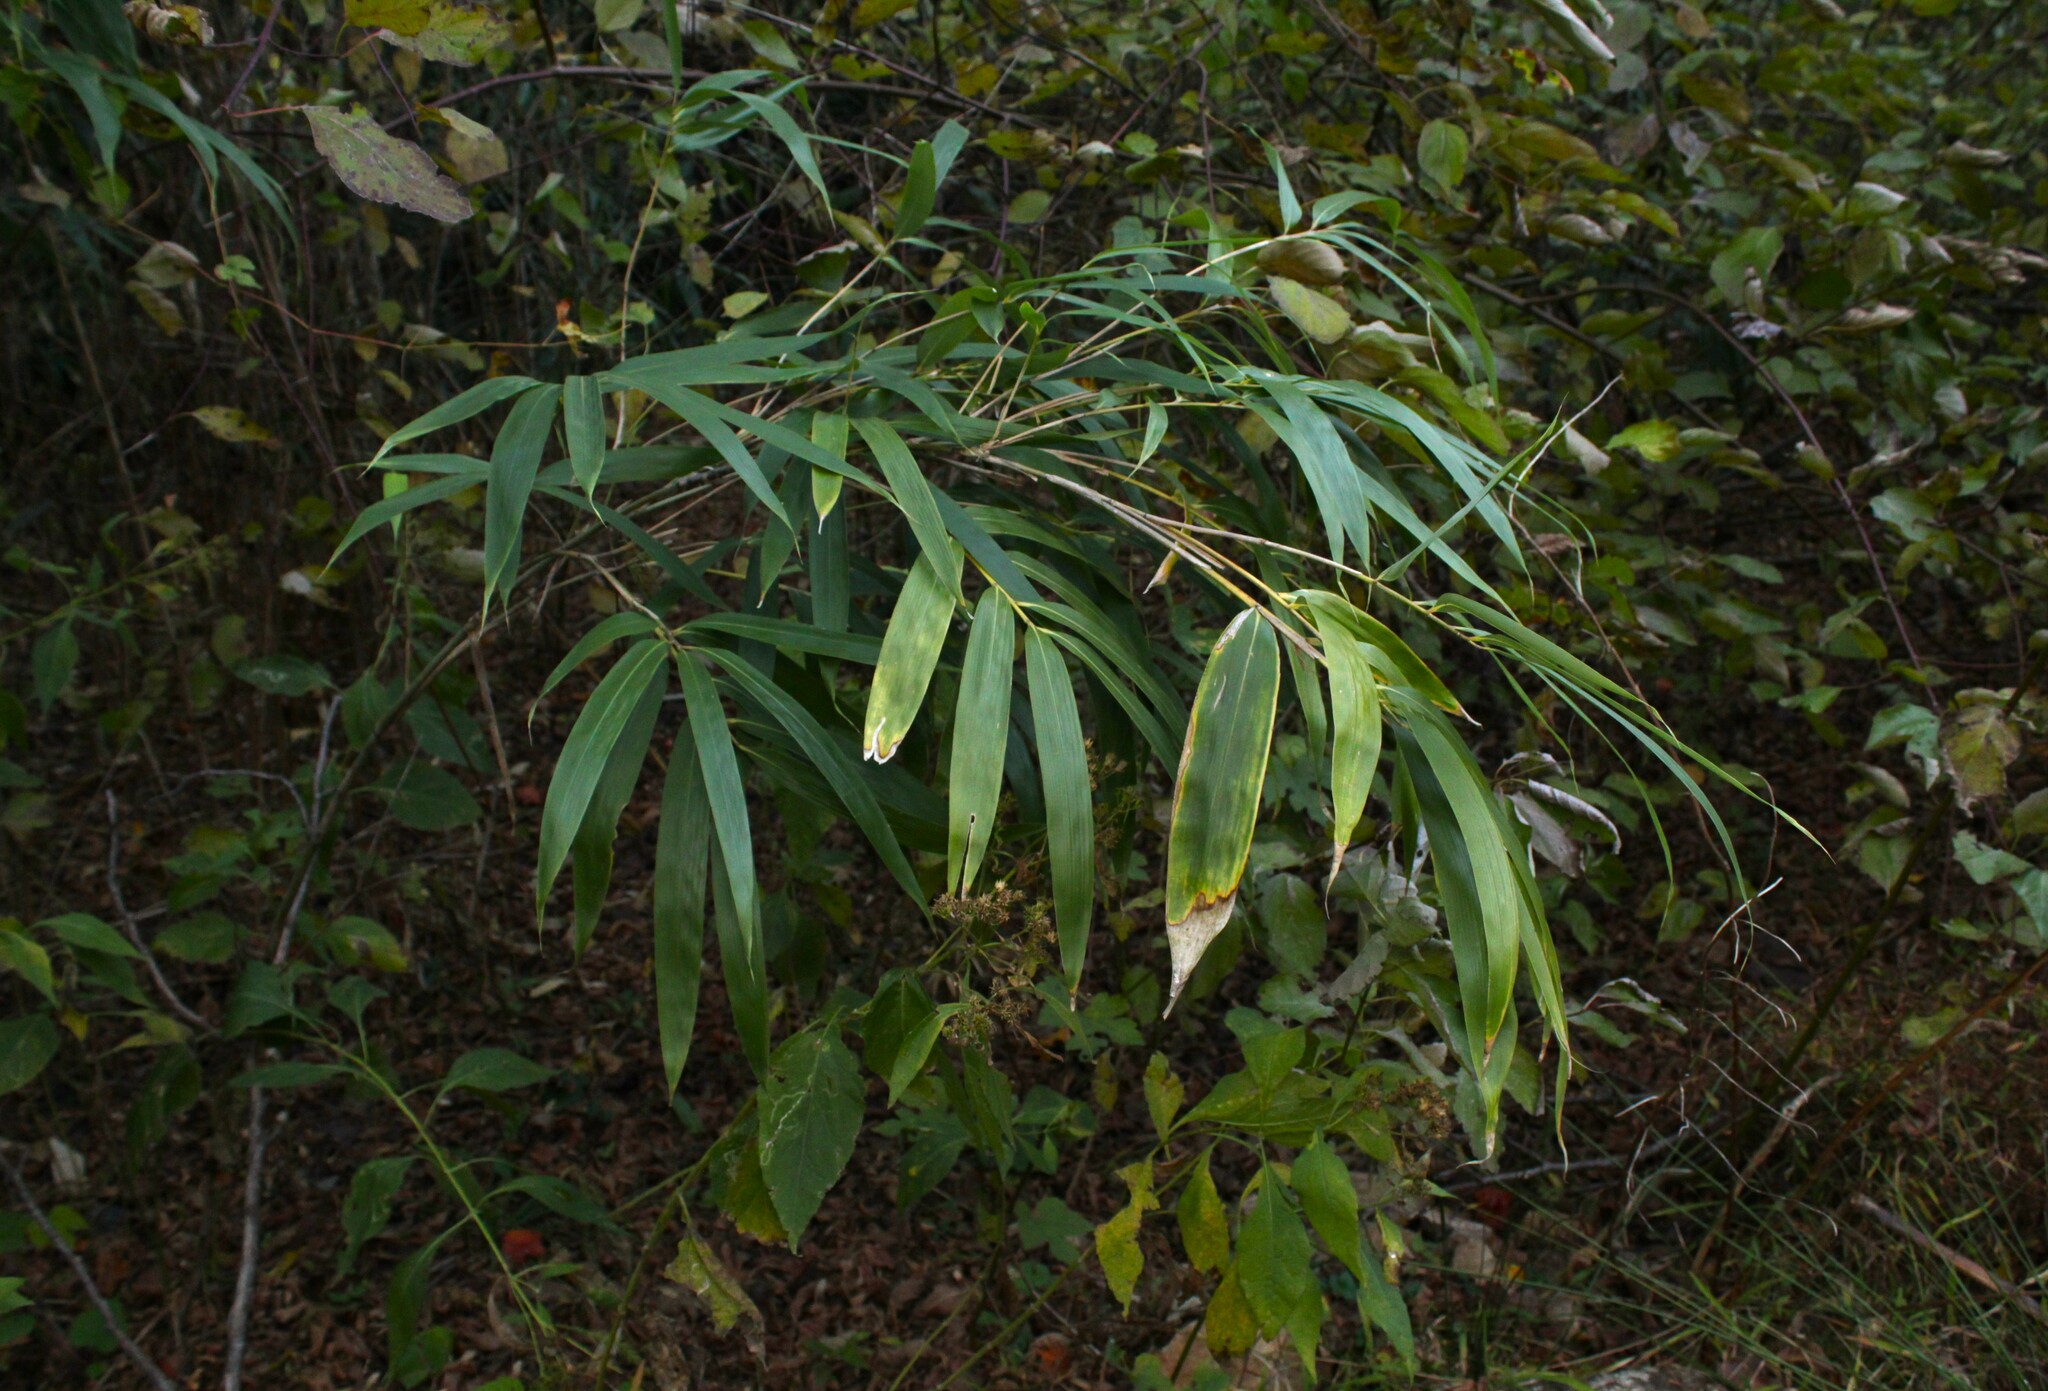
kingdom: Plantae
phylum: Tracheophyta
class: Liliopsida
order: Poales
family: Poaceae
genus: Pseudosasa
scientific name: Pseudosasa japonica
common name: Arrow bamboo
